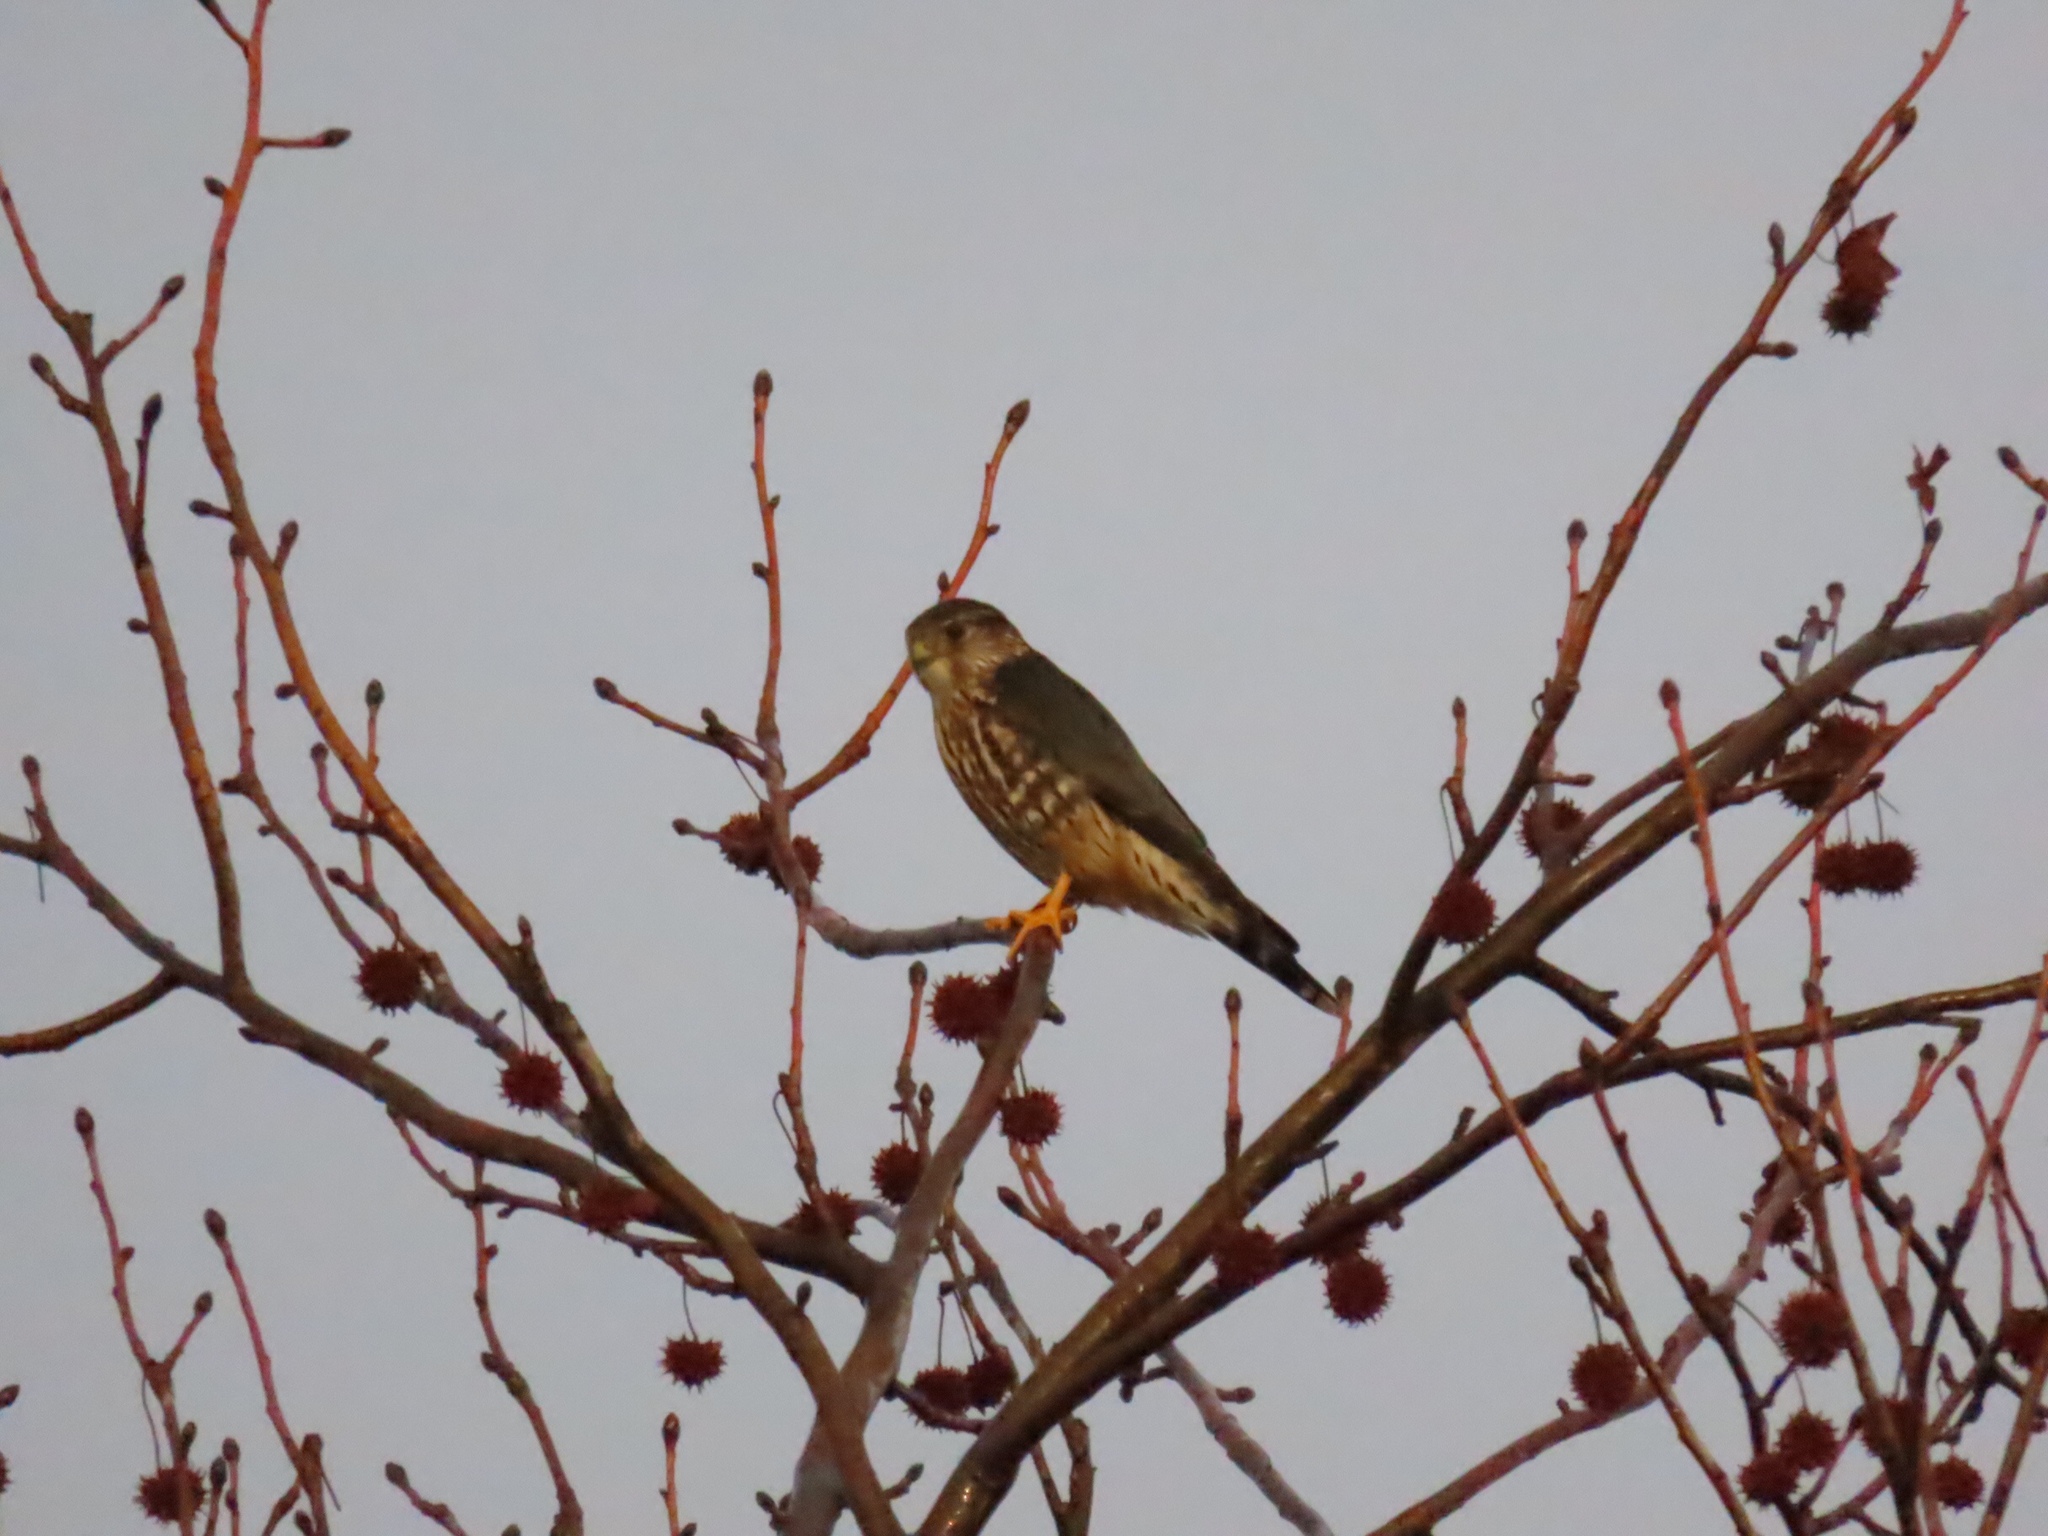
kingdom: Animalia
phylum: Chordata
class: Aves
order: Falconiformes
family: Falconidae
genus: Falco
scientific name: Falco columbarius
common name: Merlin
